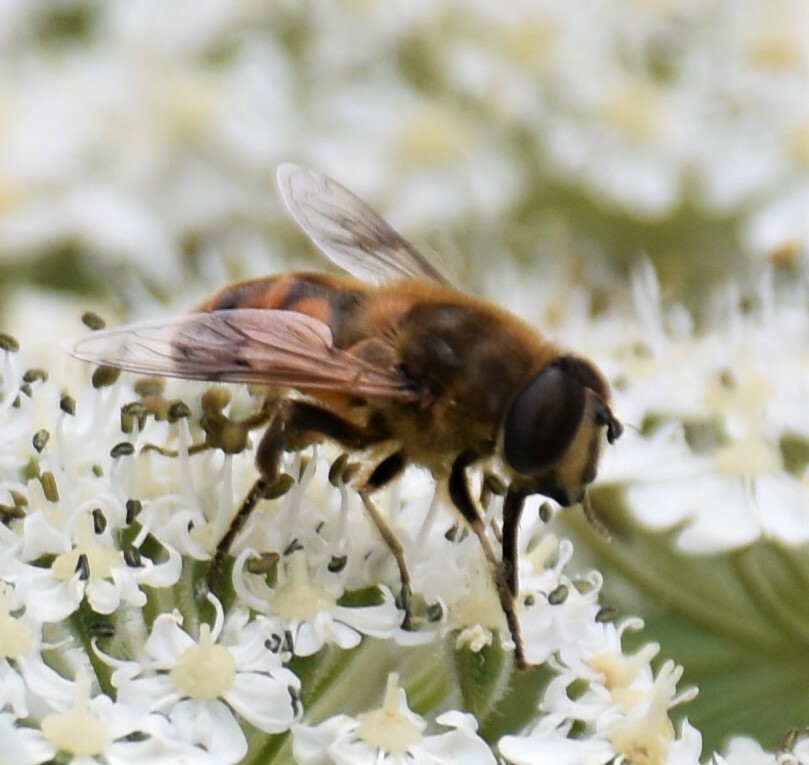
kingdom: Animalia
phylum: Arthropoda
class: Insecta
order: Diptera
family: Syrphidae
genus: Eristalis
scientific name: Eristalis tenax
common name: Drone fly
